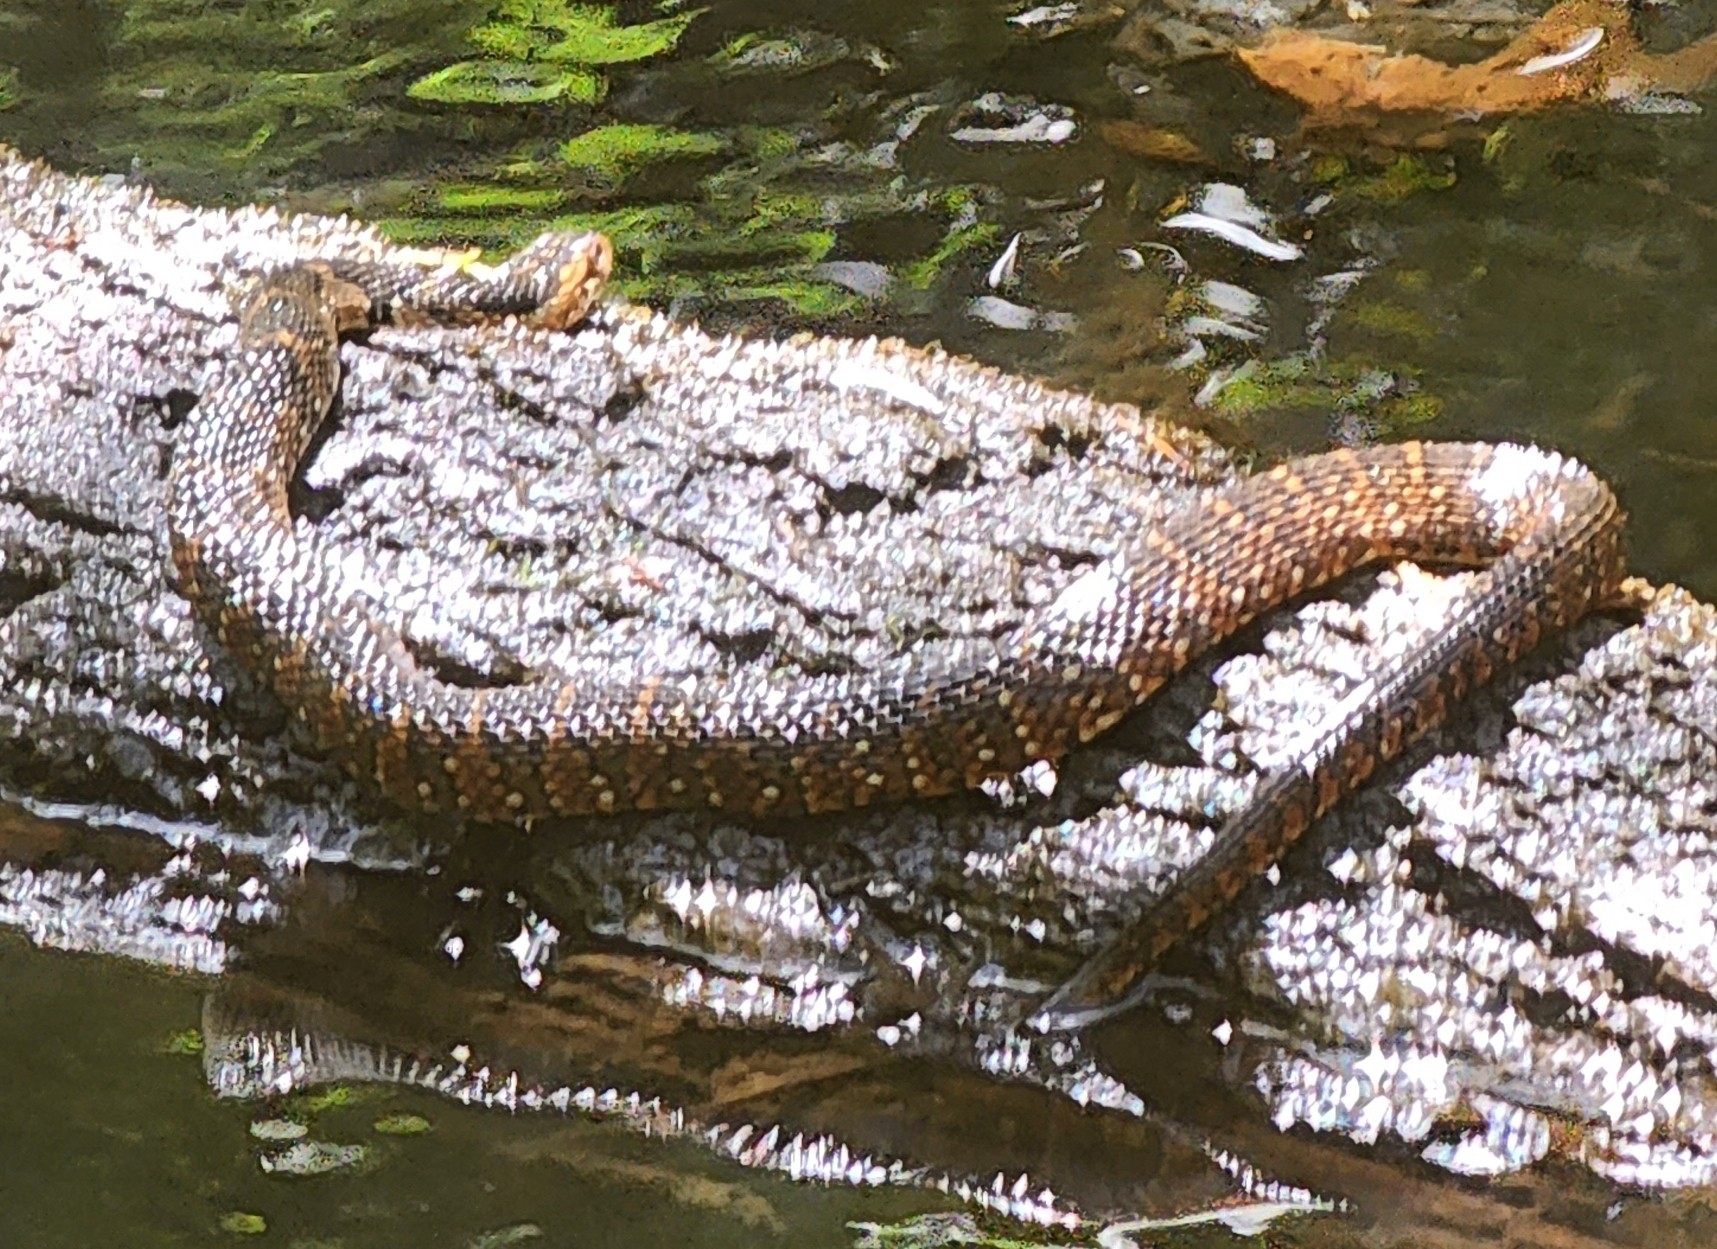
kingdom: Animalia
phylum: Chordata
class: Squamata
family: Colubridae
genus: Nerodia
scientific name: Nerodia fasciata
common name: Southern water snake
